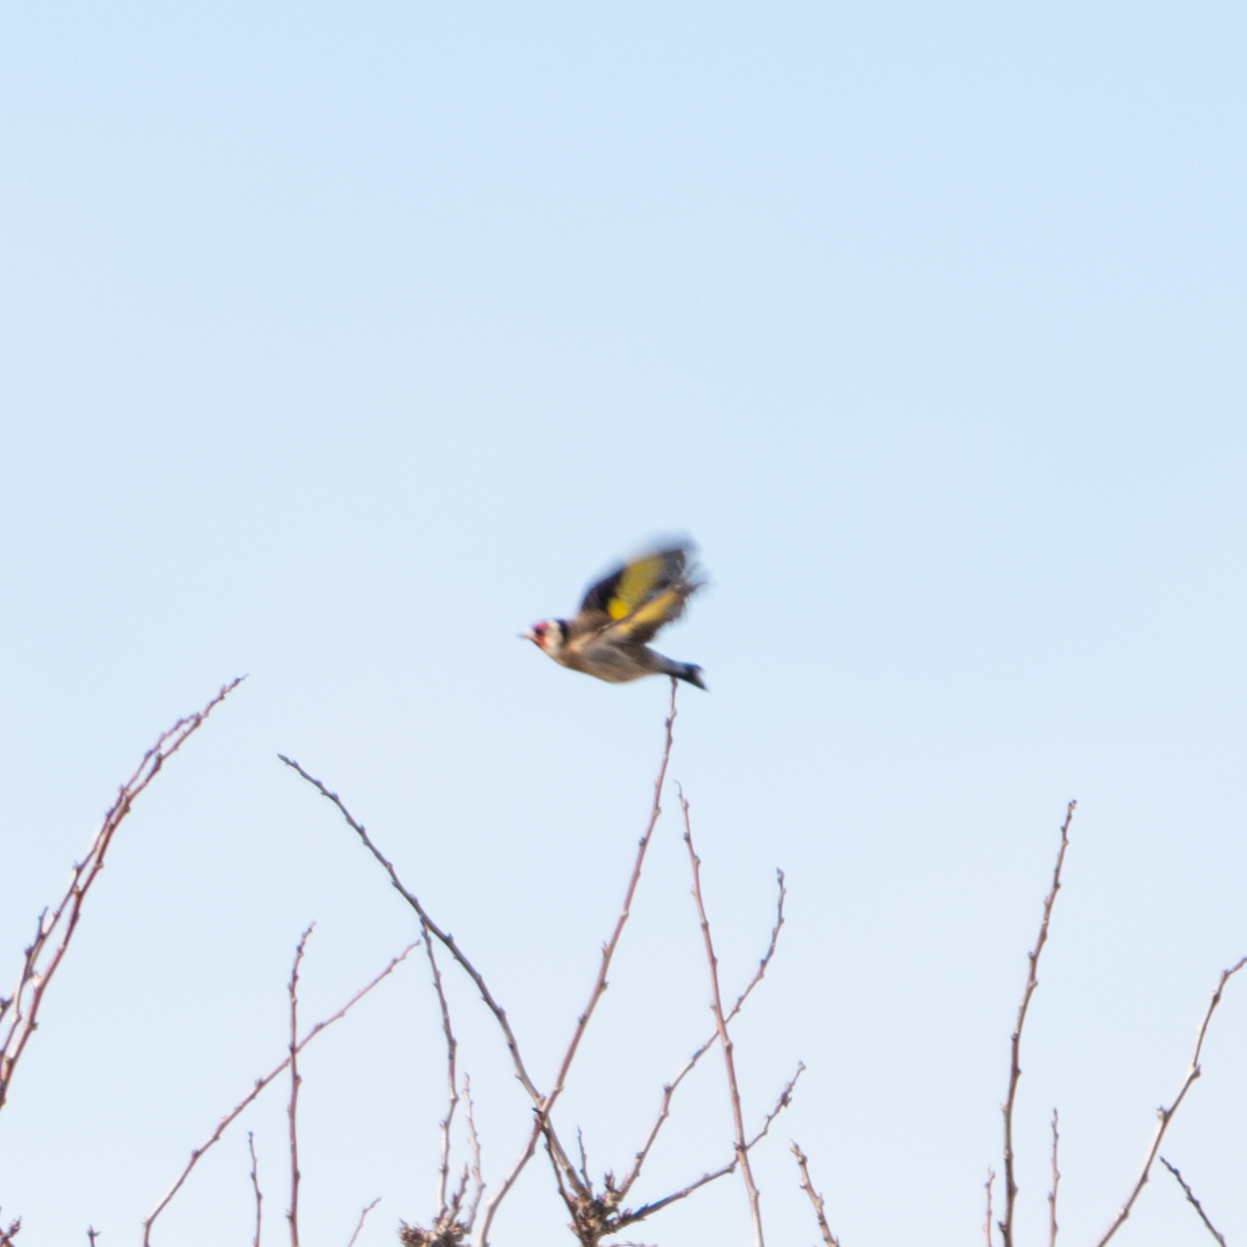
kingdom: Animalia
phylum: Chordata
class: Aves
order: Passeriformes
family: Fringillidae
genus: Carduelis
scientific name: Carduelis carduelis
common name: European goldfinch
